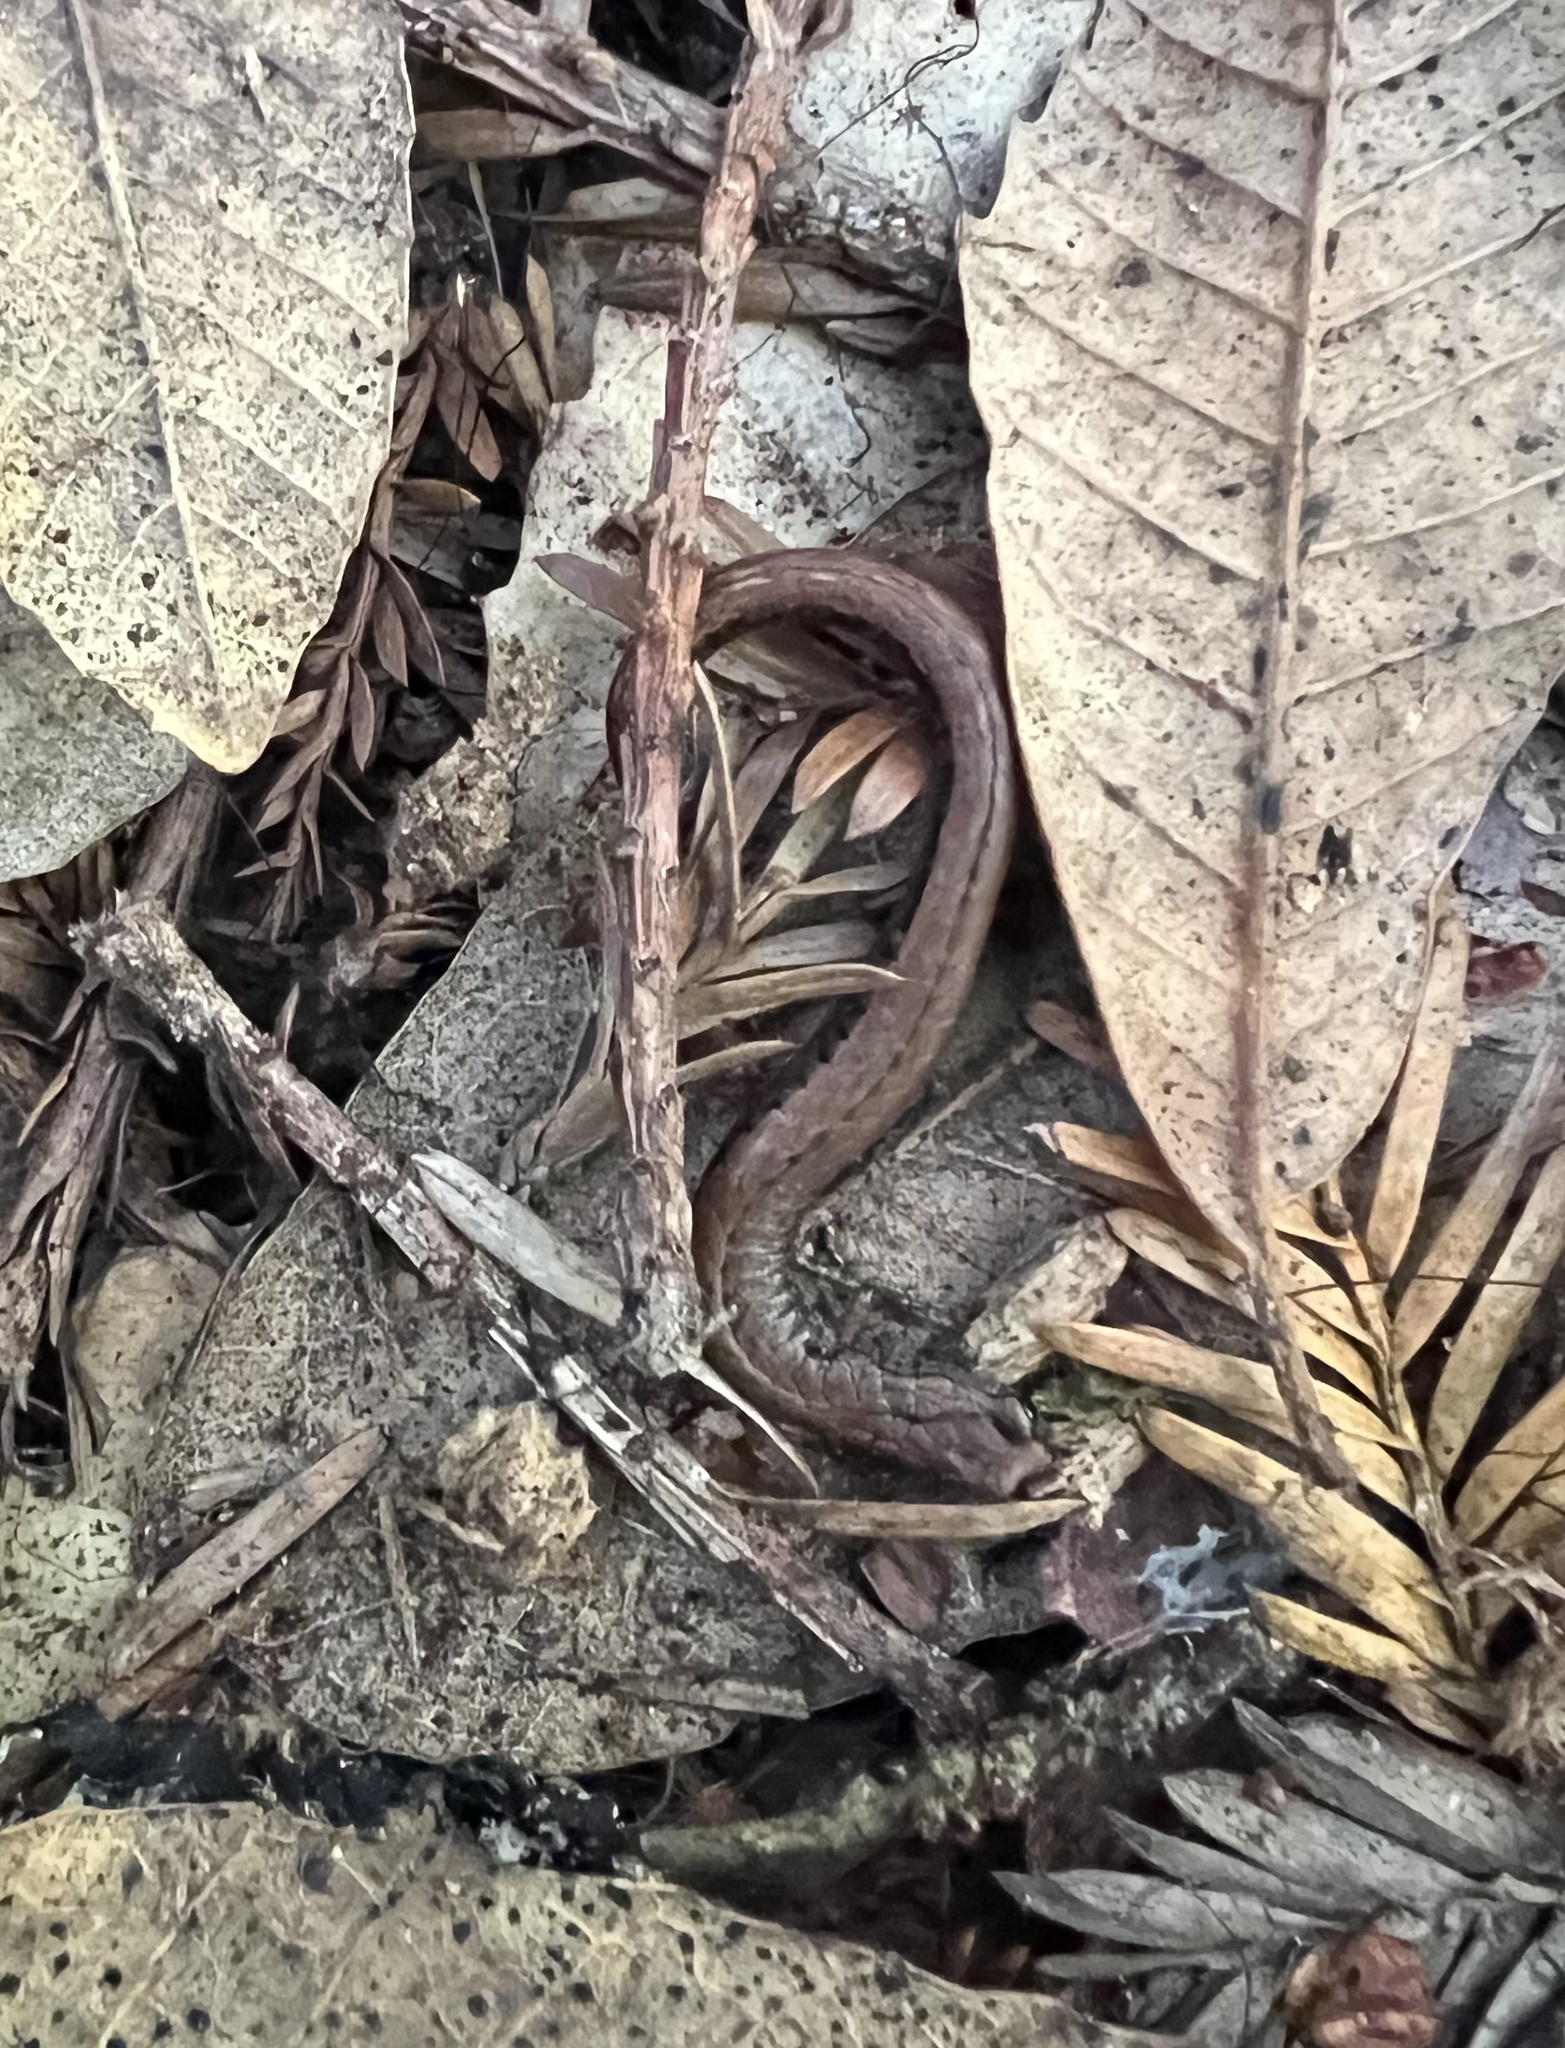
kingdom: Animalia
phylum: Chordata
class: Amphibia
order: Caudata
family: Plethodontidae
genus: Batrachoseps
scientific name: Batrachoseps attenuatus
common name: California slender salamander
